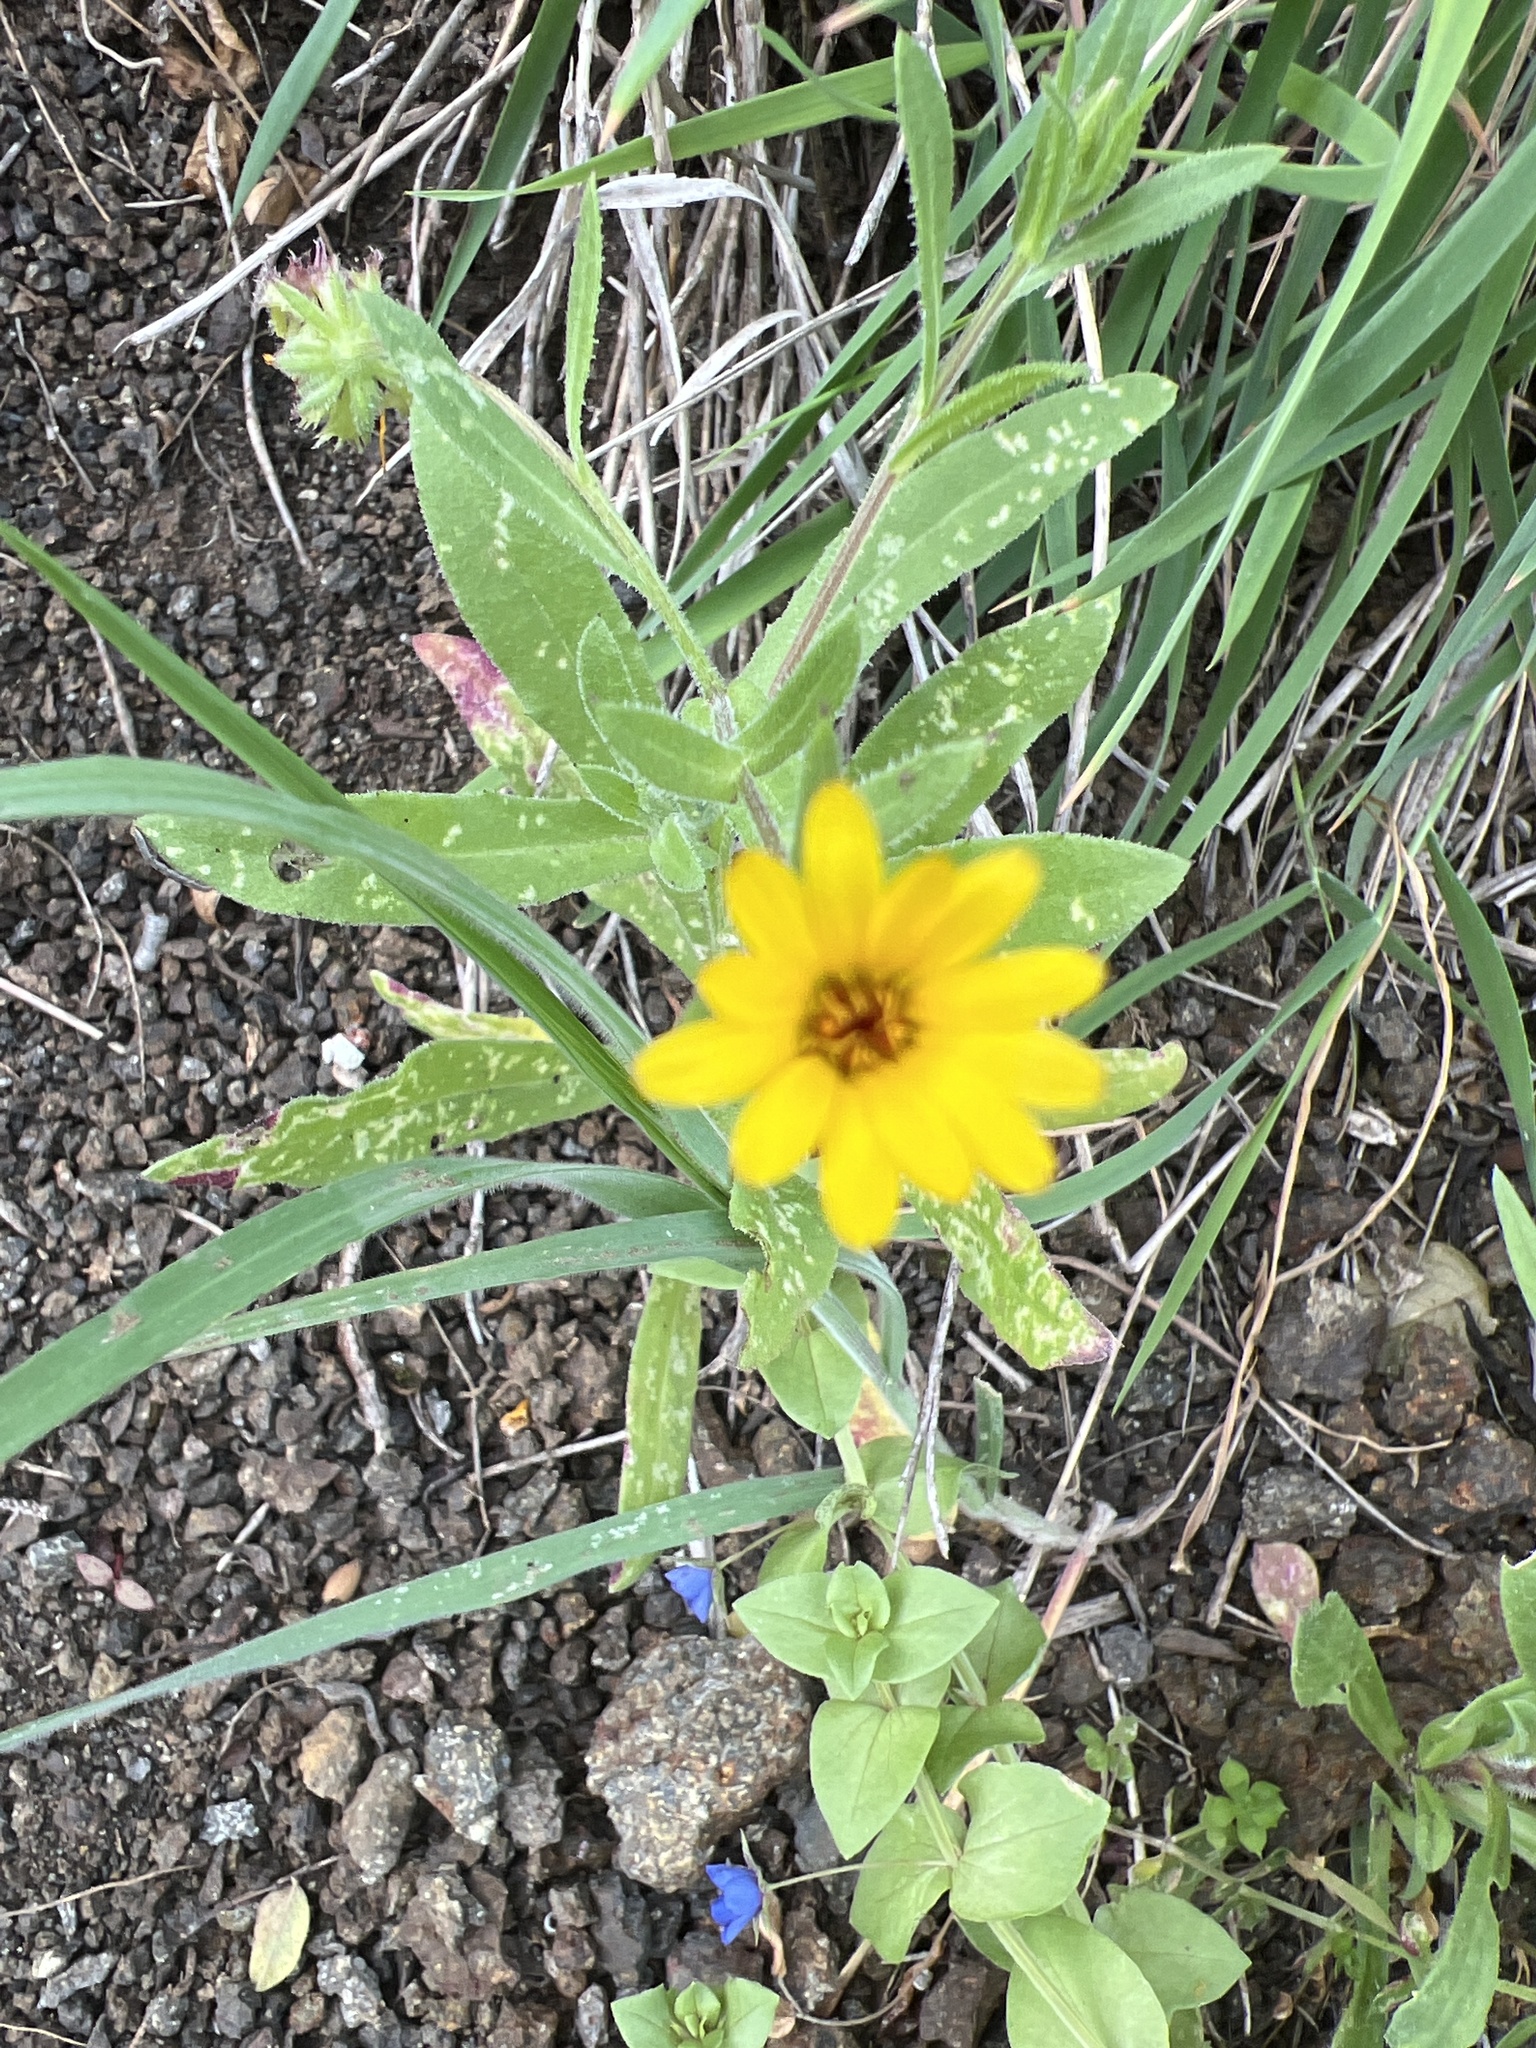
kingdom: Plantae
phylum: Tracheophyta
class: Magnoliopsida
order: Asterales
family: Asteraceae
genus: Calendula
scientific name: Calendula arvensis
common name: Field marigold
